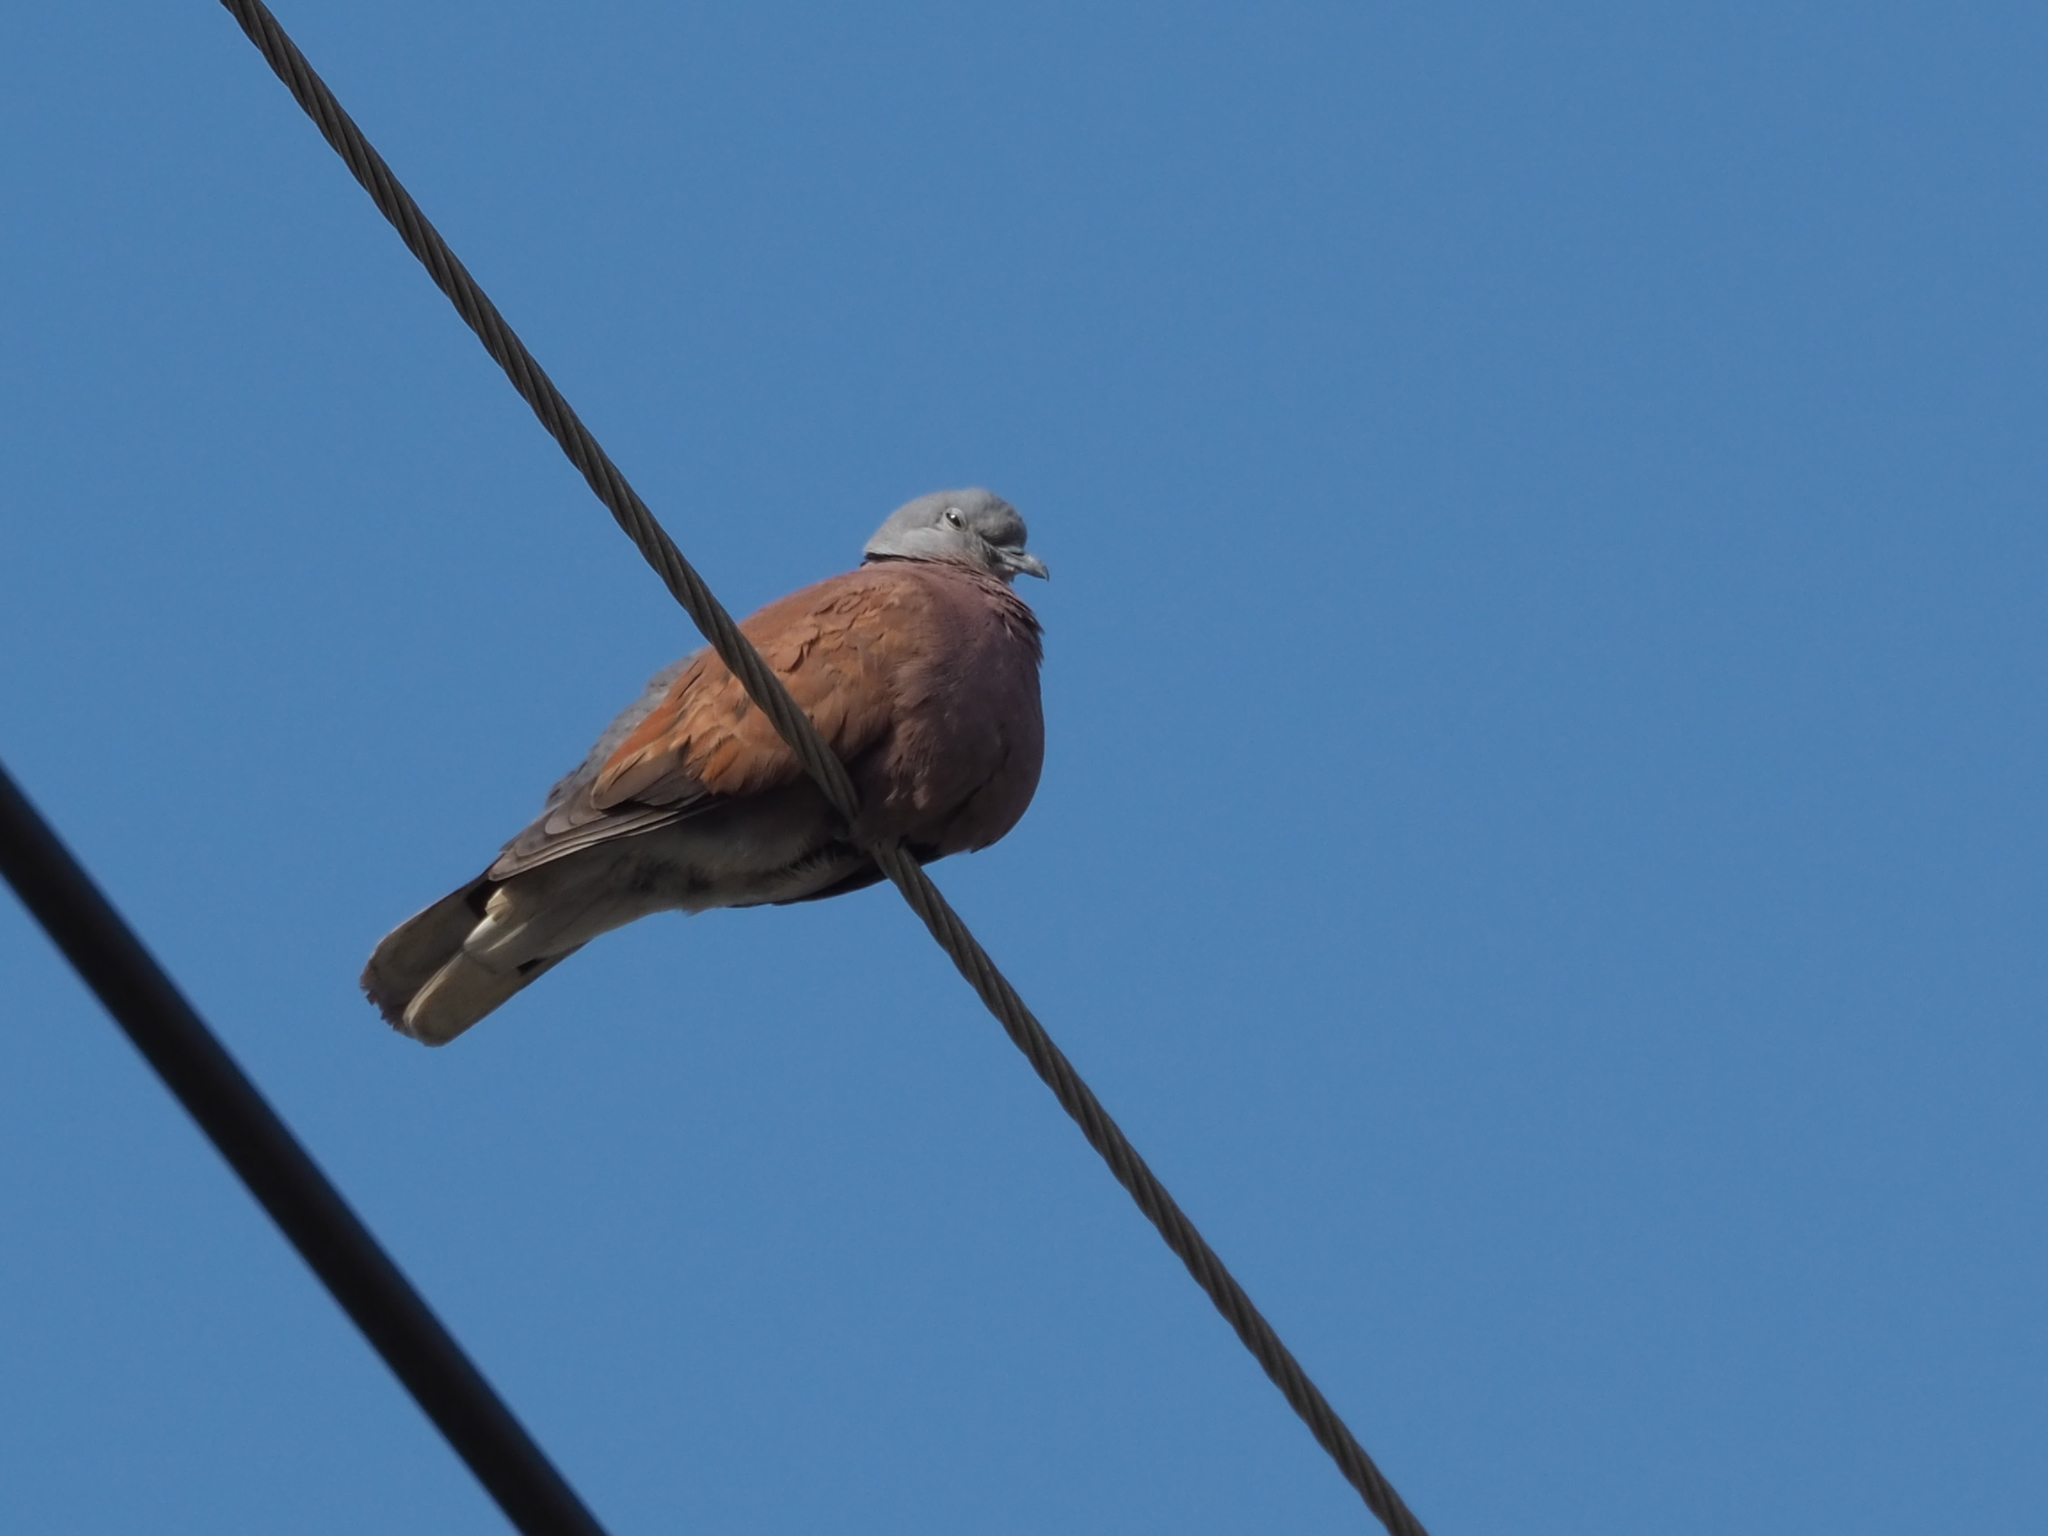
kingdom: Animalia
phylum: Chordata
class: Aves
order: Columbiformes
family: Columbidae
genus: Streptopelia
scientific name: Streptopelia tranquebarica
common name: Red turtle dove
